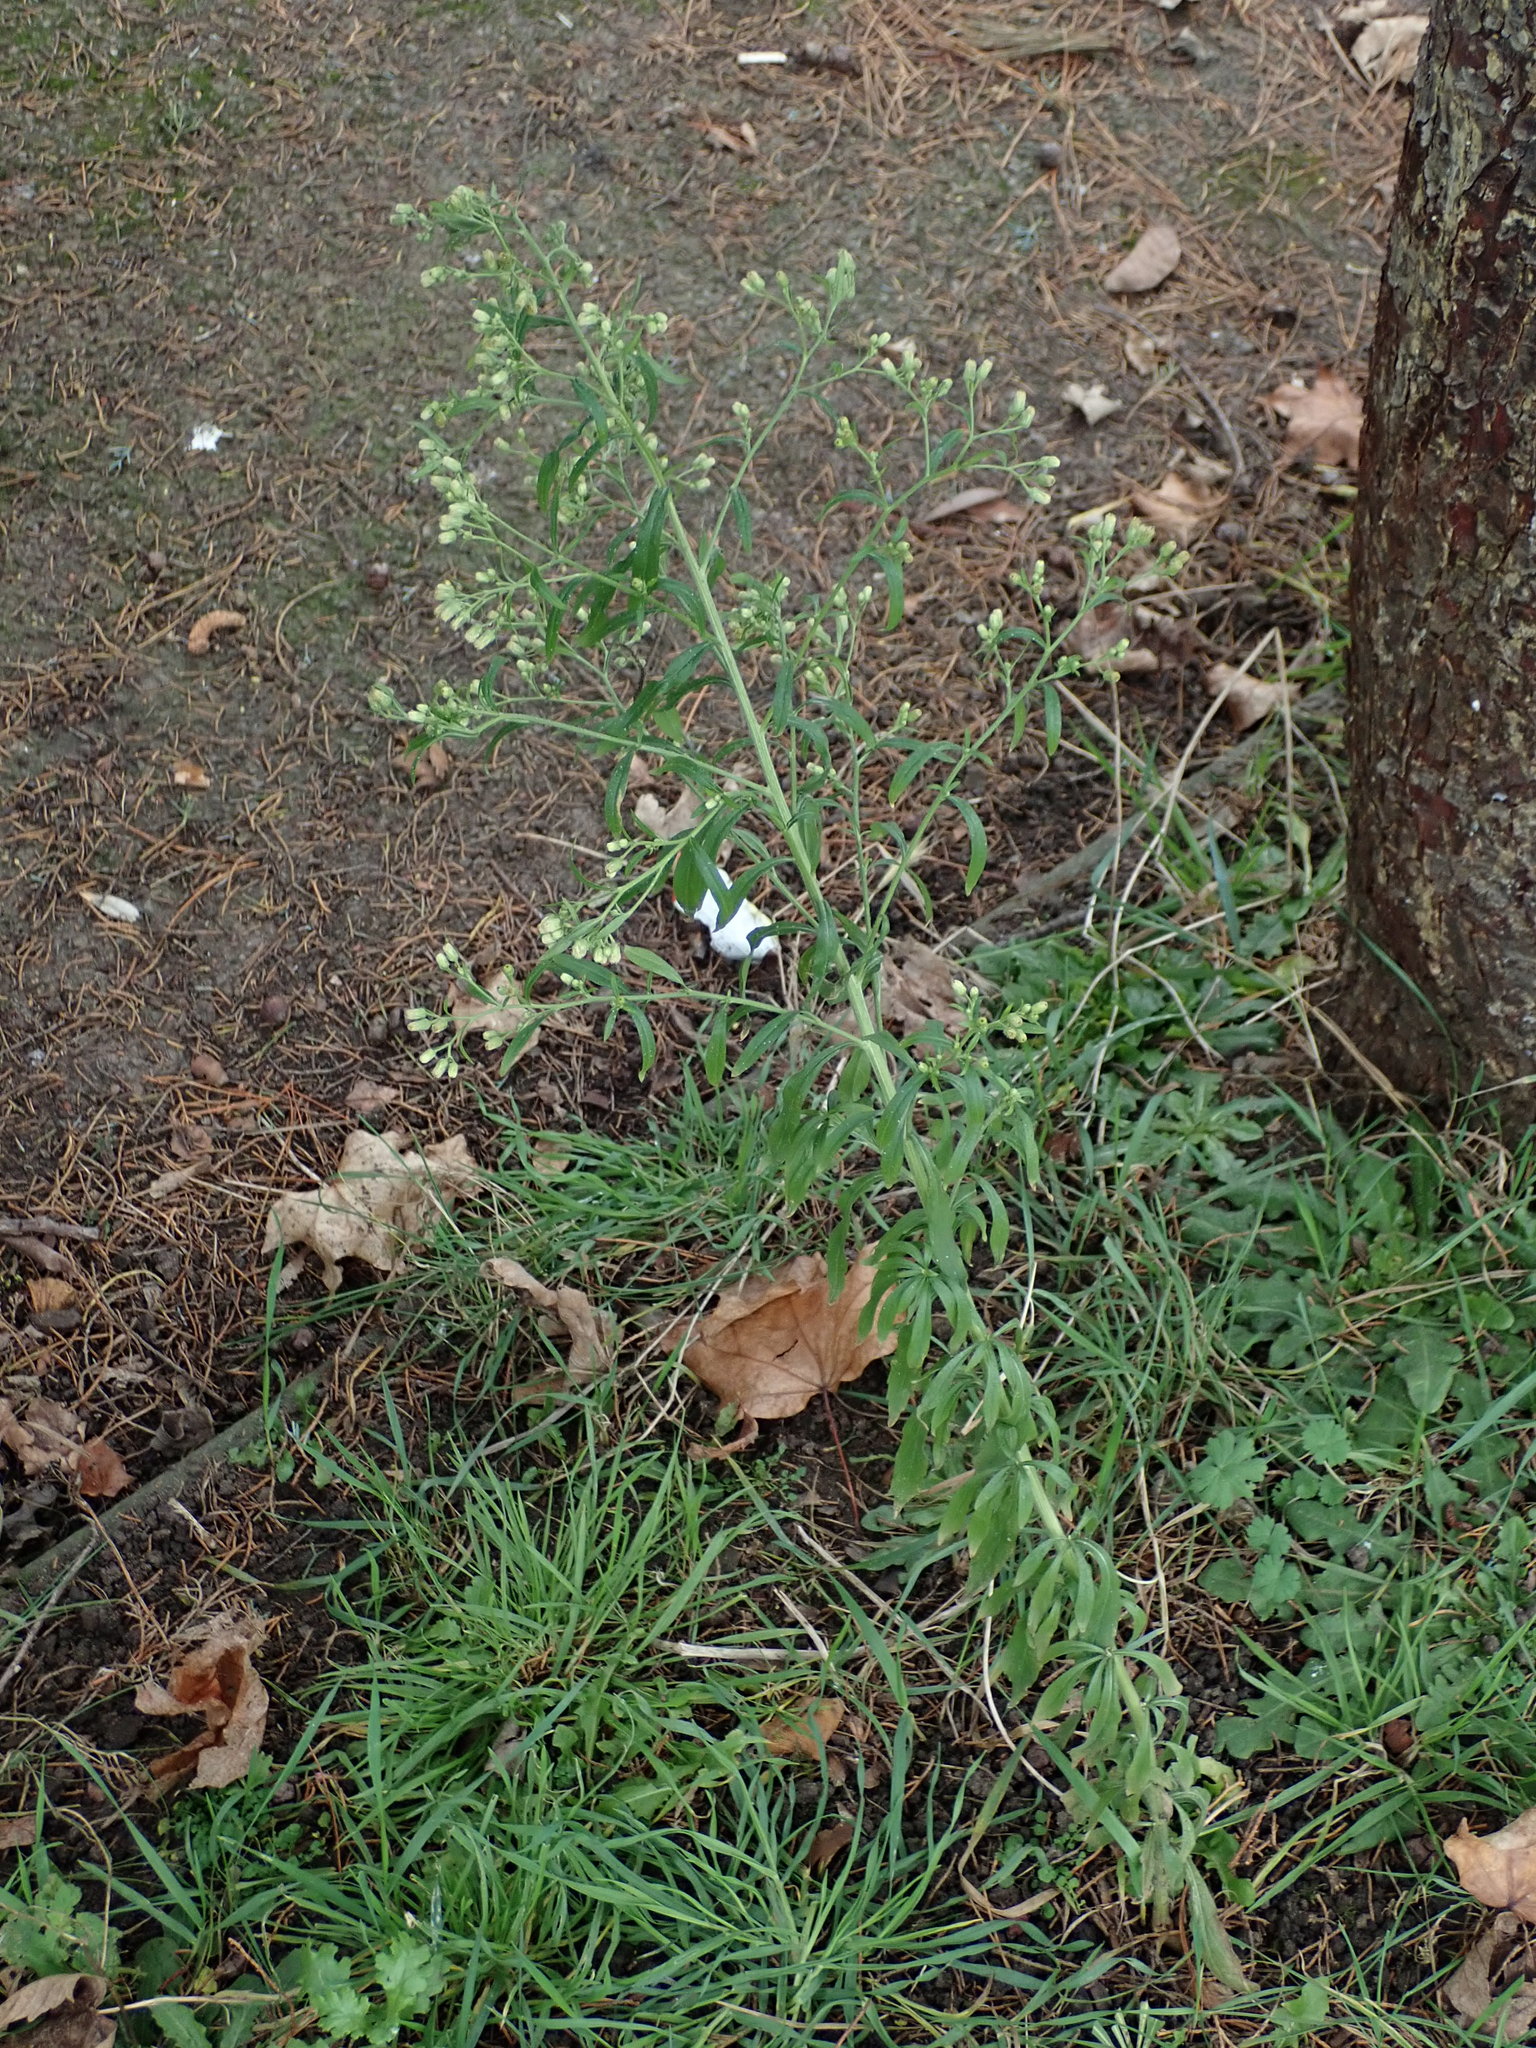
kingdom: Plantae
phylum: Tracheophyta
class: Magnoliopsida
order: Asterales
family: Asteraceae
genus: Erigeron
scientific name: Erigeron sumatrensis
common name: Daisy
